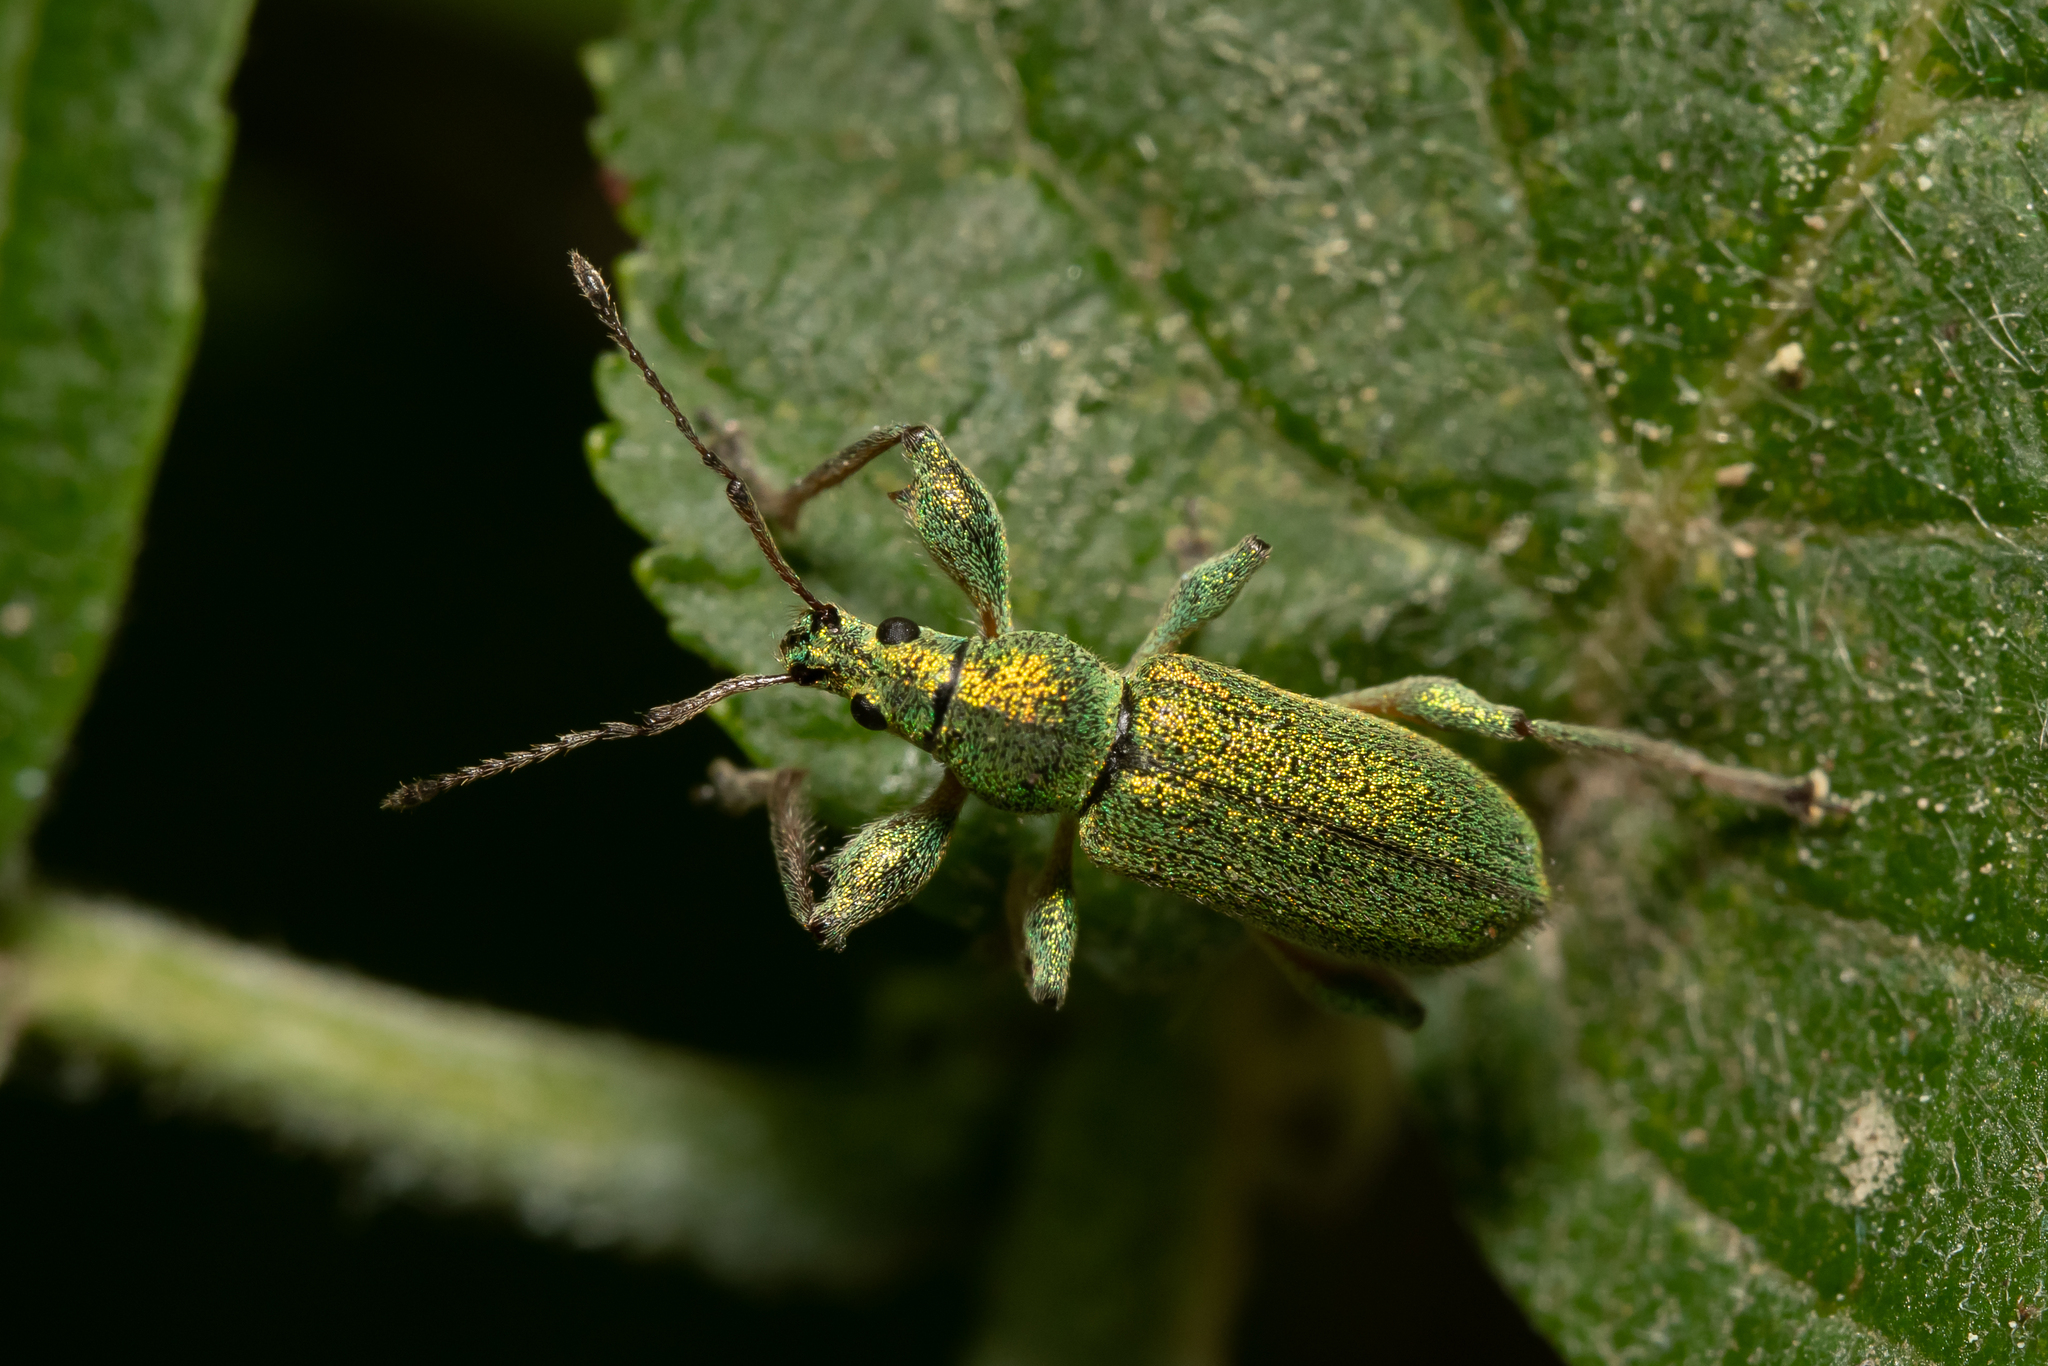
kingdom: Animalia
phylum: Arthropoda
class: Insecta
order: Coleoptera
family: Curculionidae
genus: Phyllobius
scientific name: Phyllobius arborator
